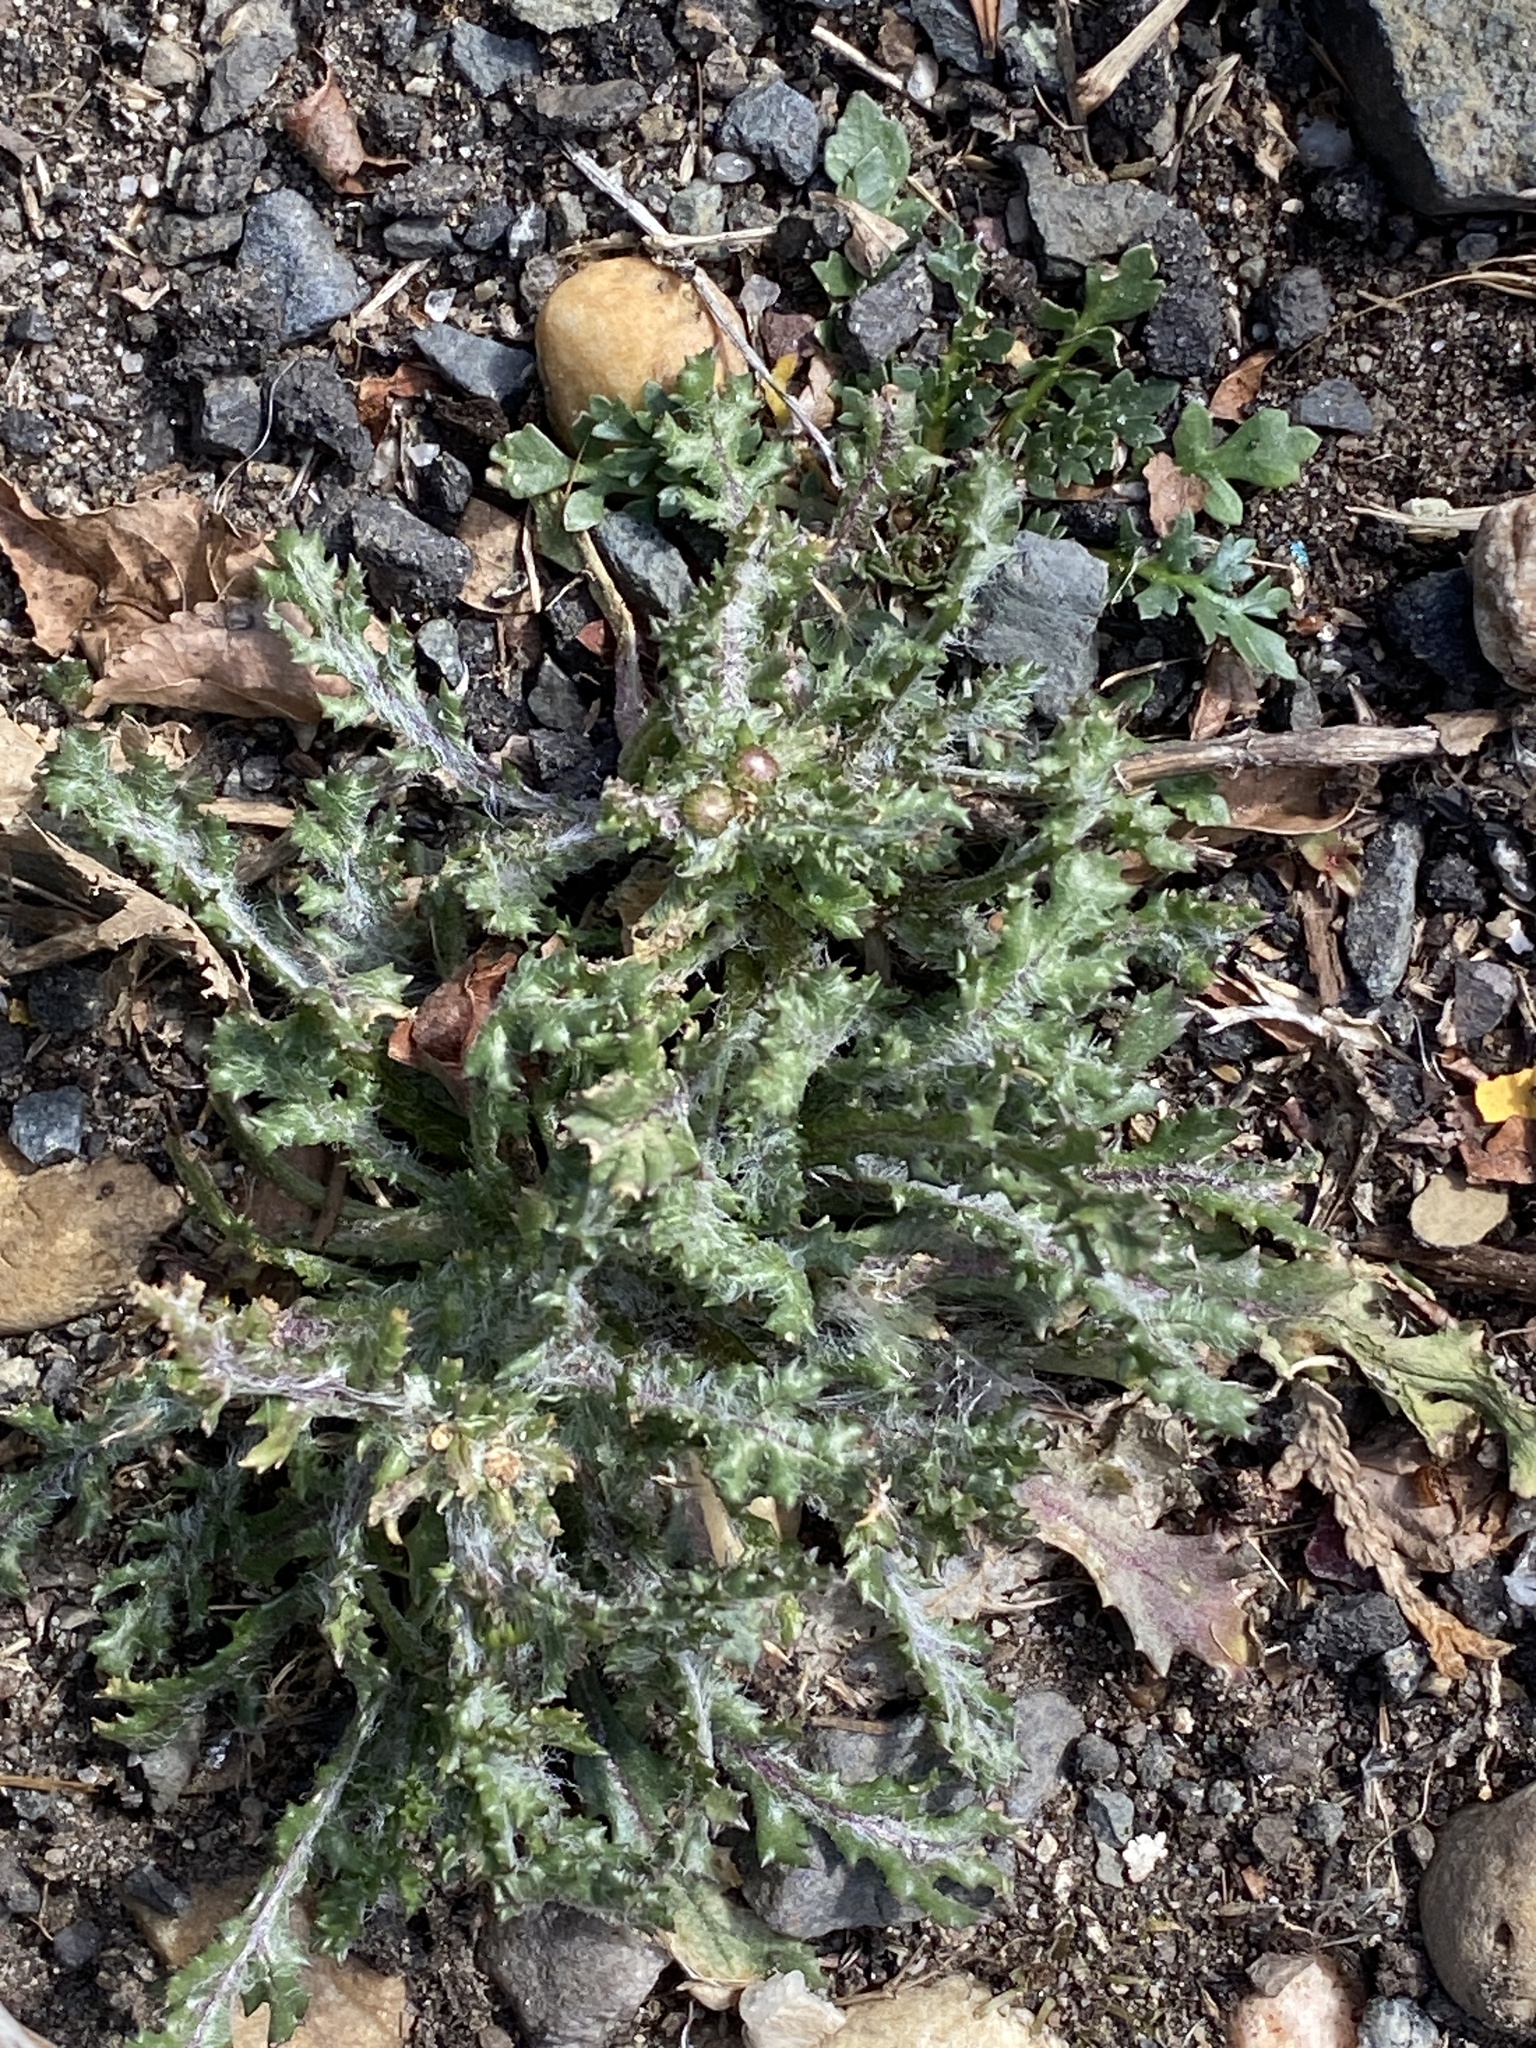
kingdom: Plantae
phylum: Tracheophyta
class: Magnoliopsida
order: Asterales
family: Asteraceae
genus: Senecio
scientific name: Senecio vulgaris
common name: Old-man-in-the-spring
